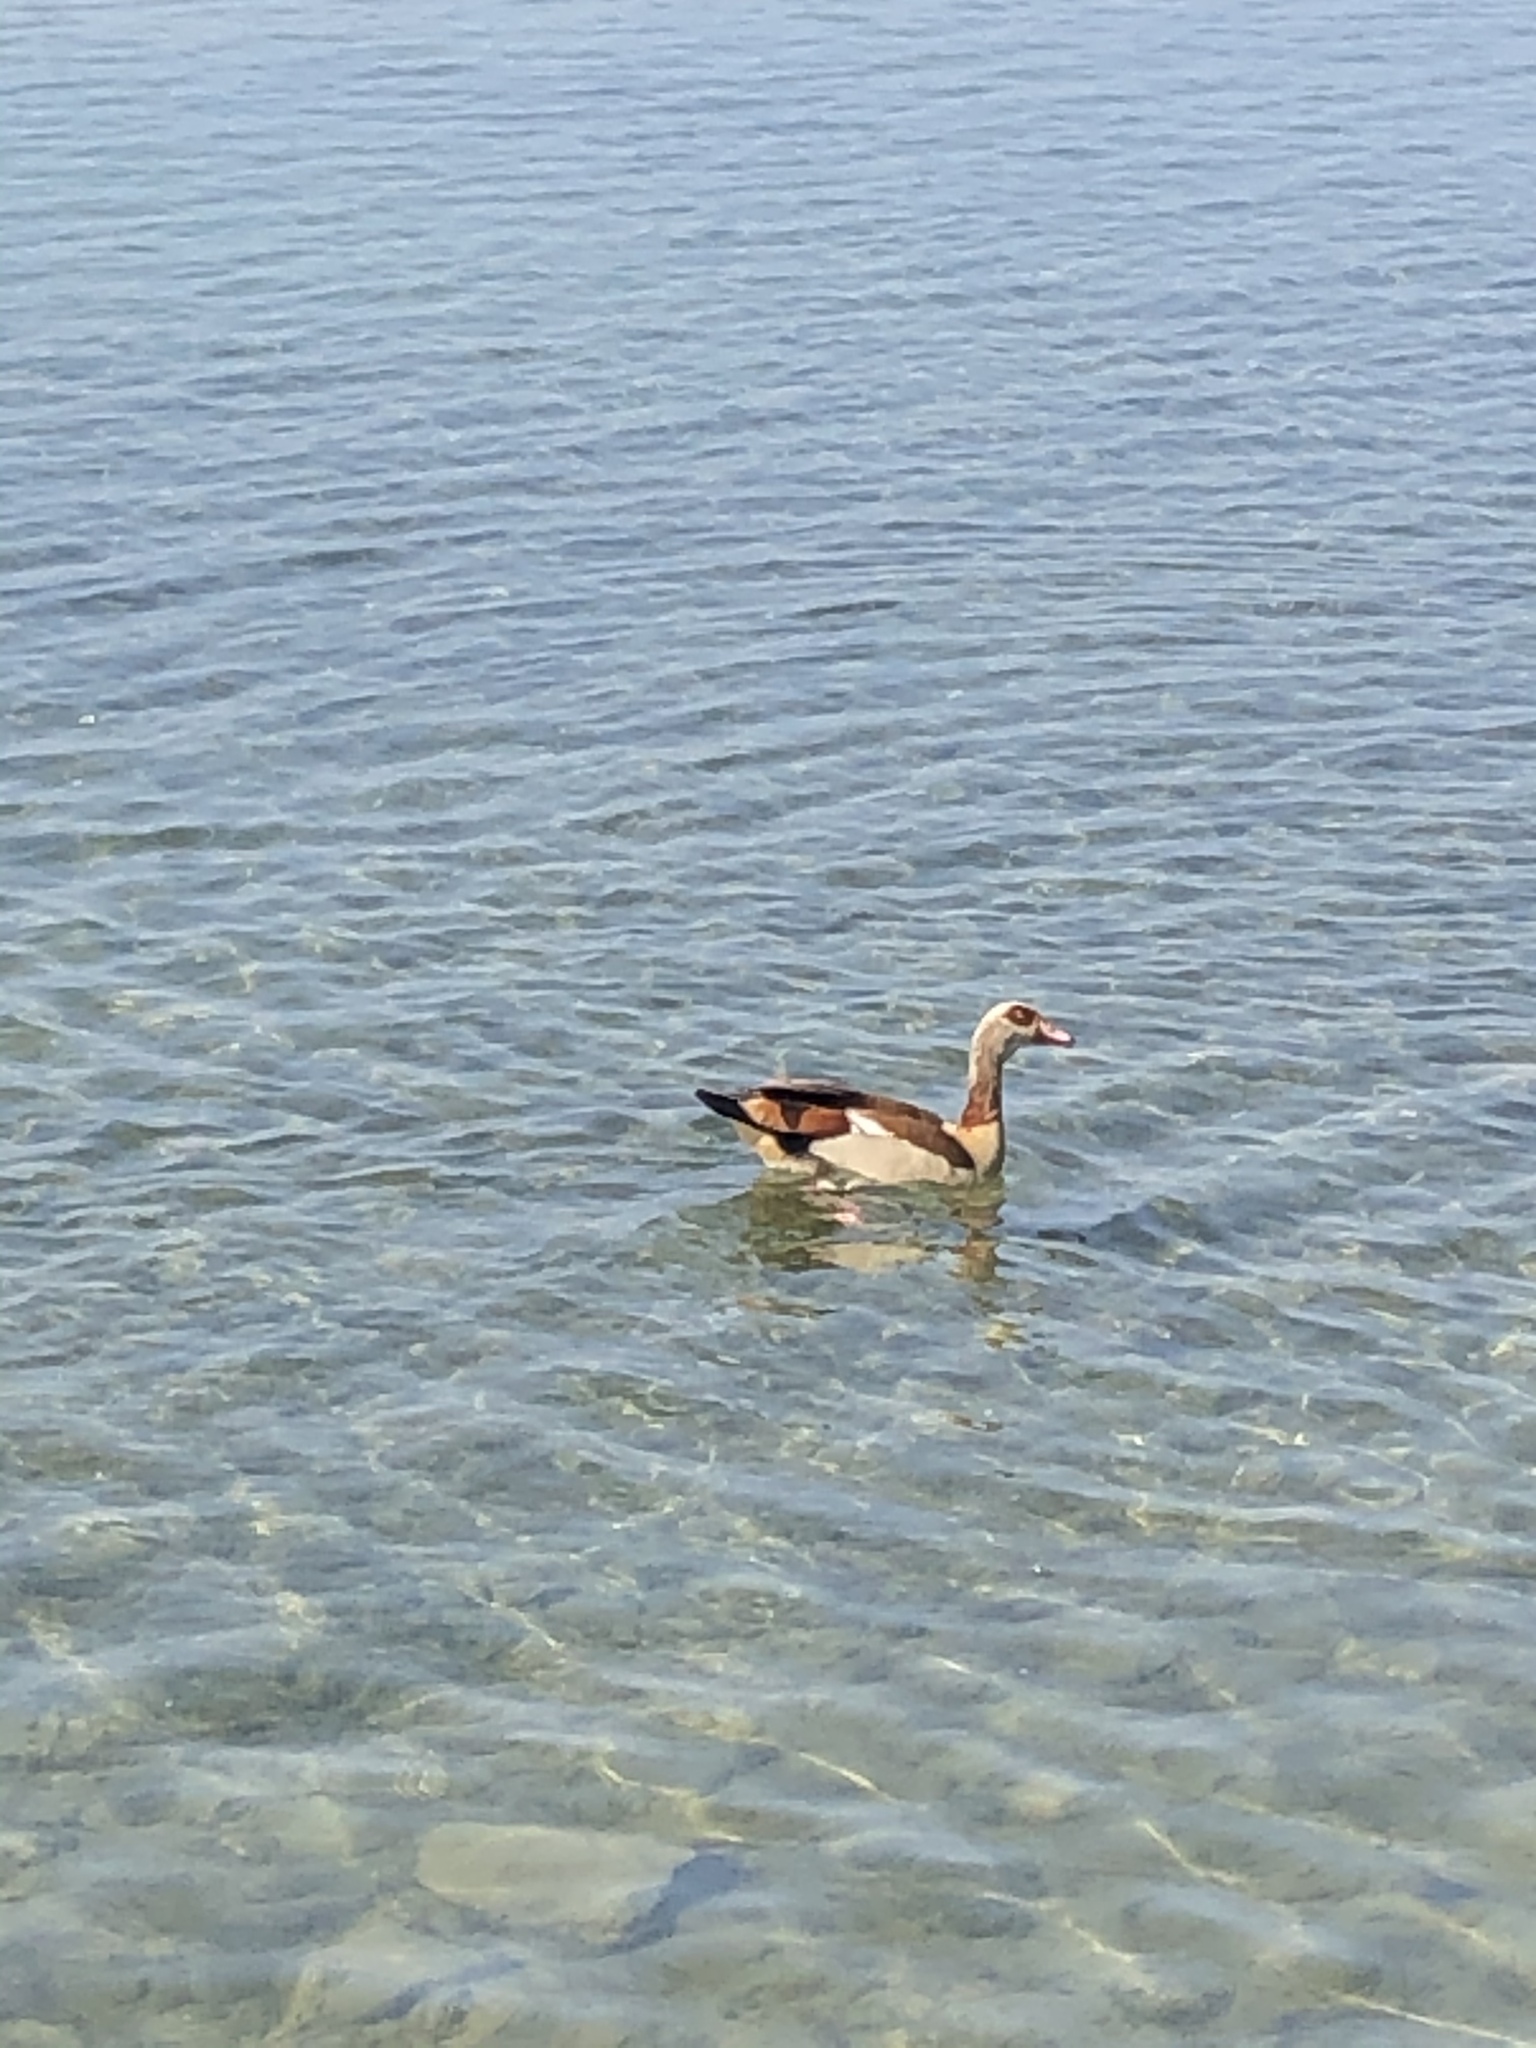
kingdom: Animalia
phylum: Chordata
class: Aves
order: Anseriformes
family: Anatidae
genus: Alopochen
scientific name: Alopochen aegyptiaca
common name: Egyptian goose
